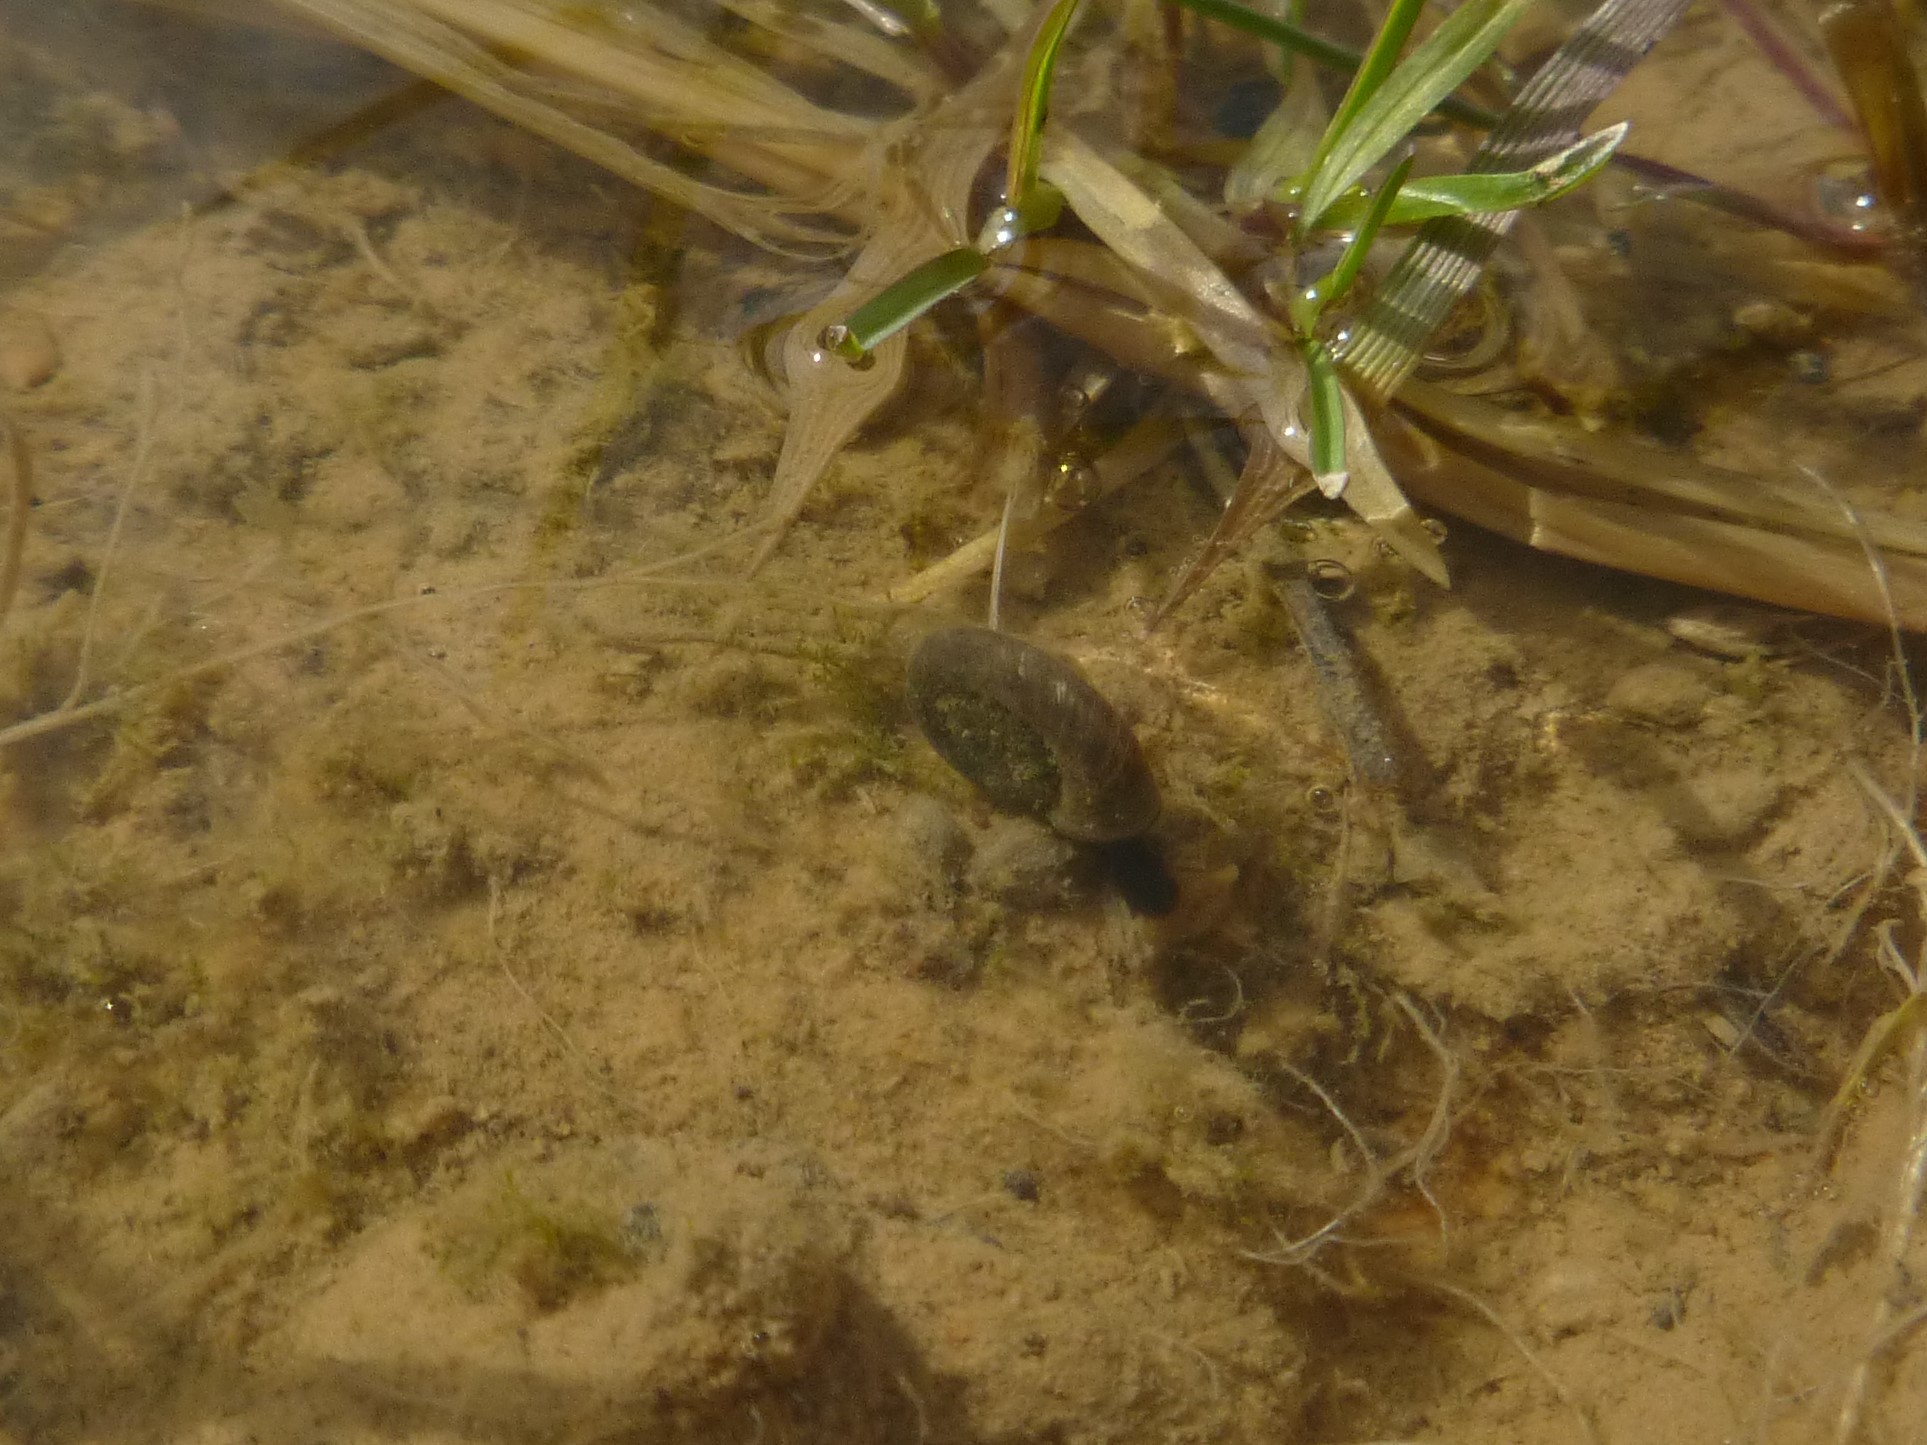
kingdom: Animalia
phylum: Mollusca
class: Gastropoda
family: Planorbidae
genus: Planorbis
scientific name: Planorbis planorbis
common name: Margined ramshorn
